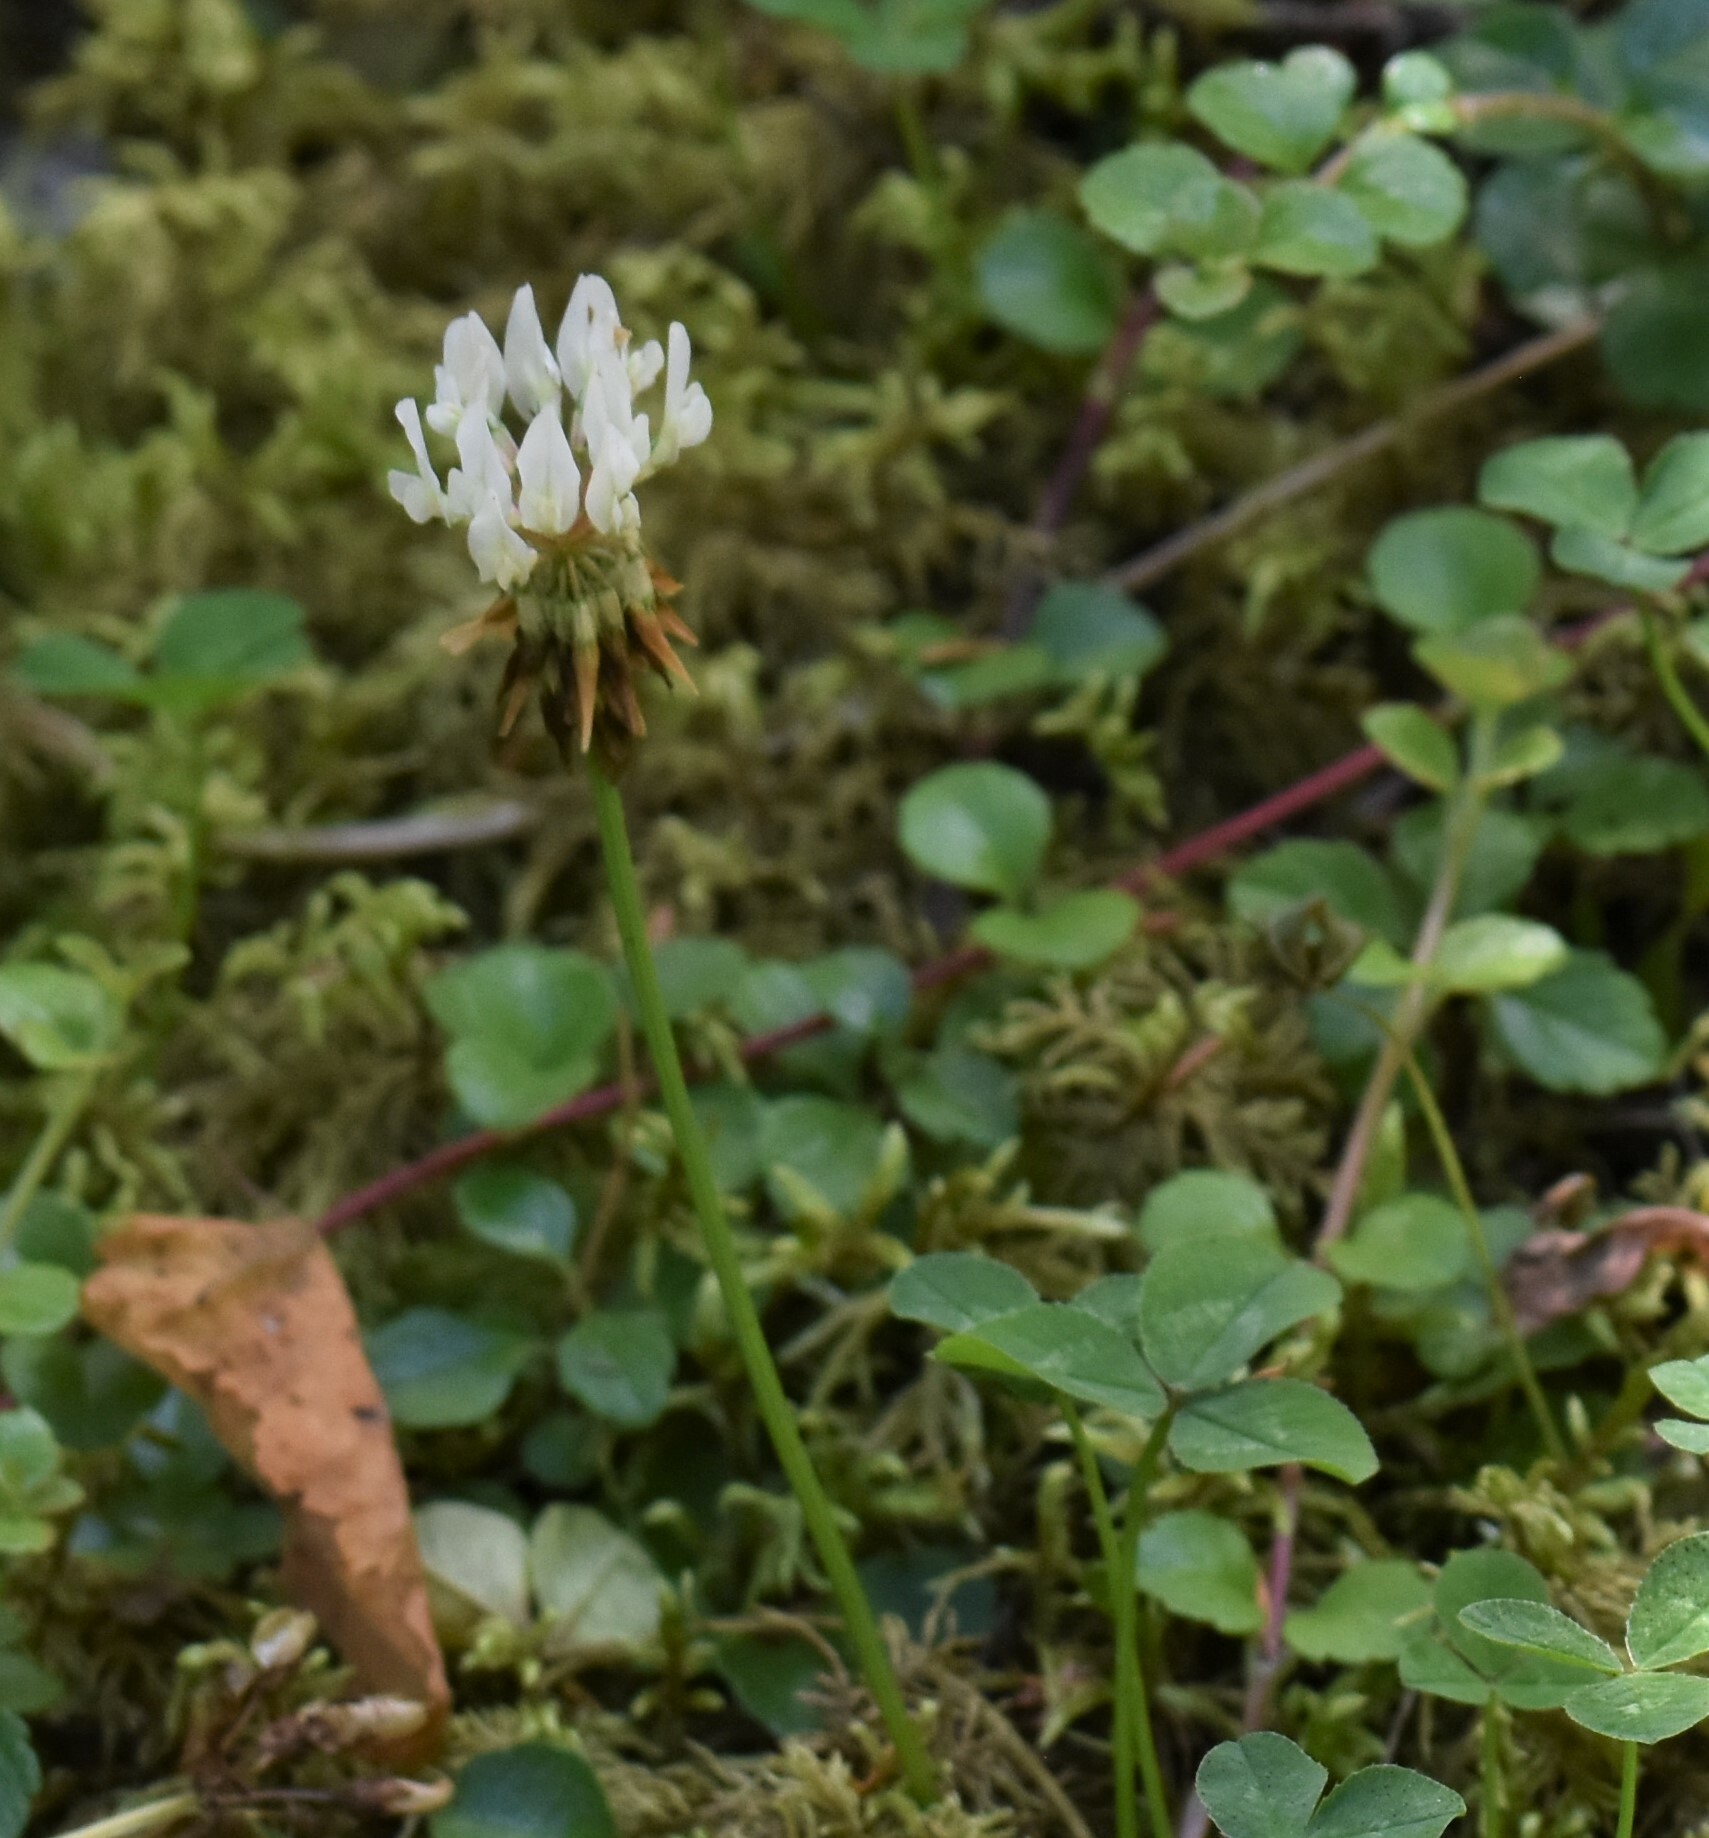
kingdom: Plantae
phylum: Tracheophyta
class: Magnoliopsida
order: Fabales
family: Fabaceae
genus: Trifolium
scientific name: Trifolium repens
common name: White clover
